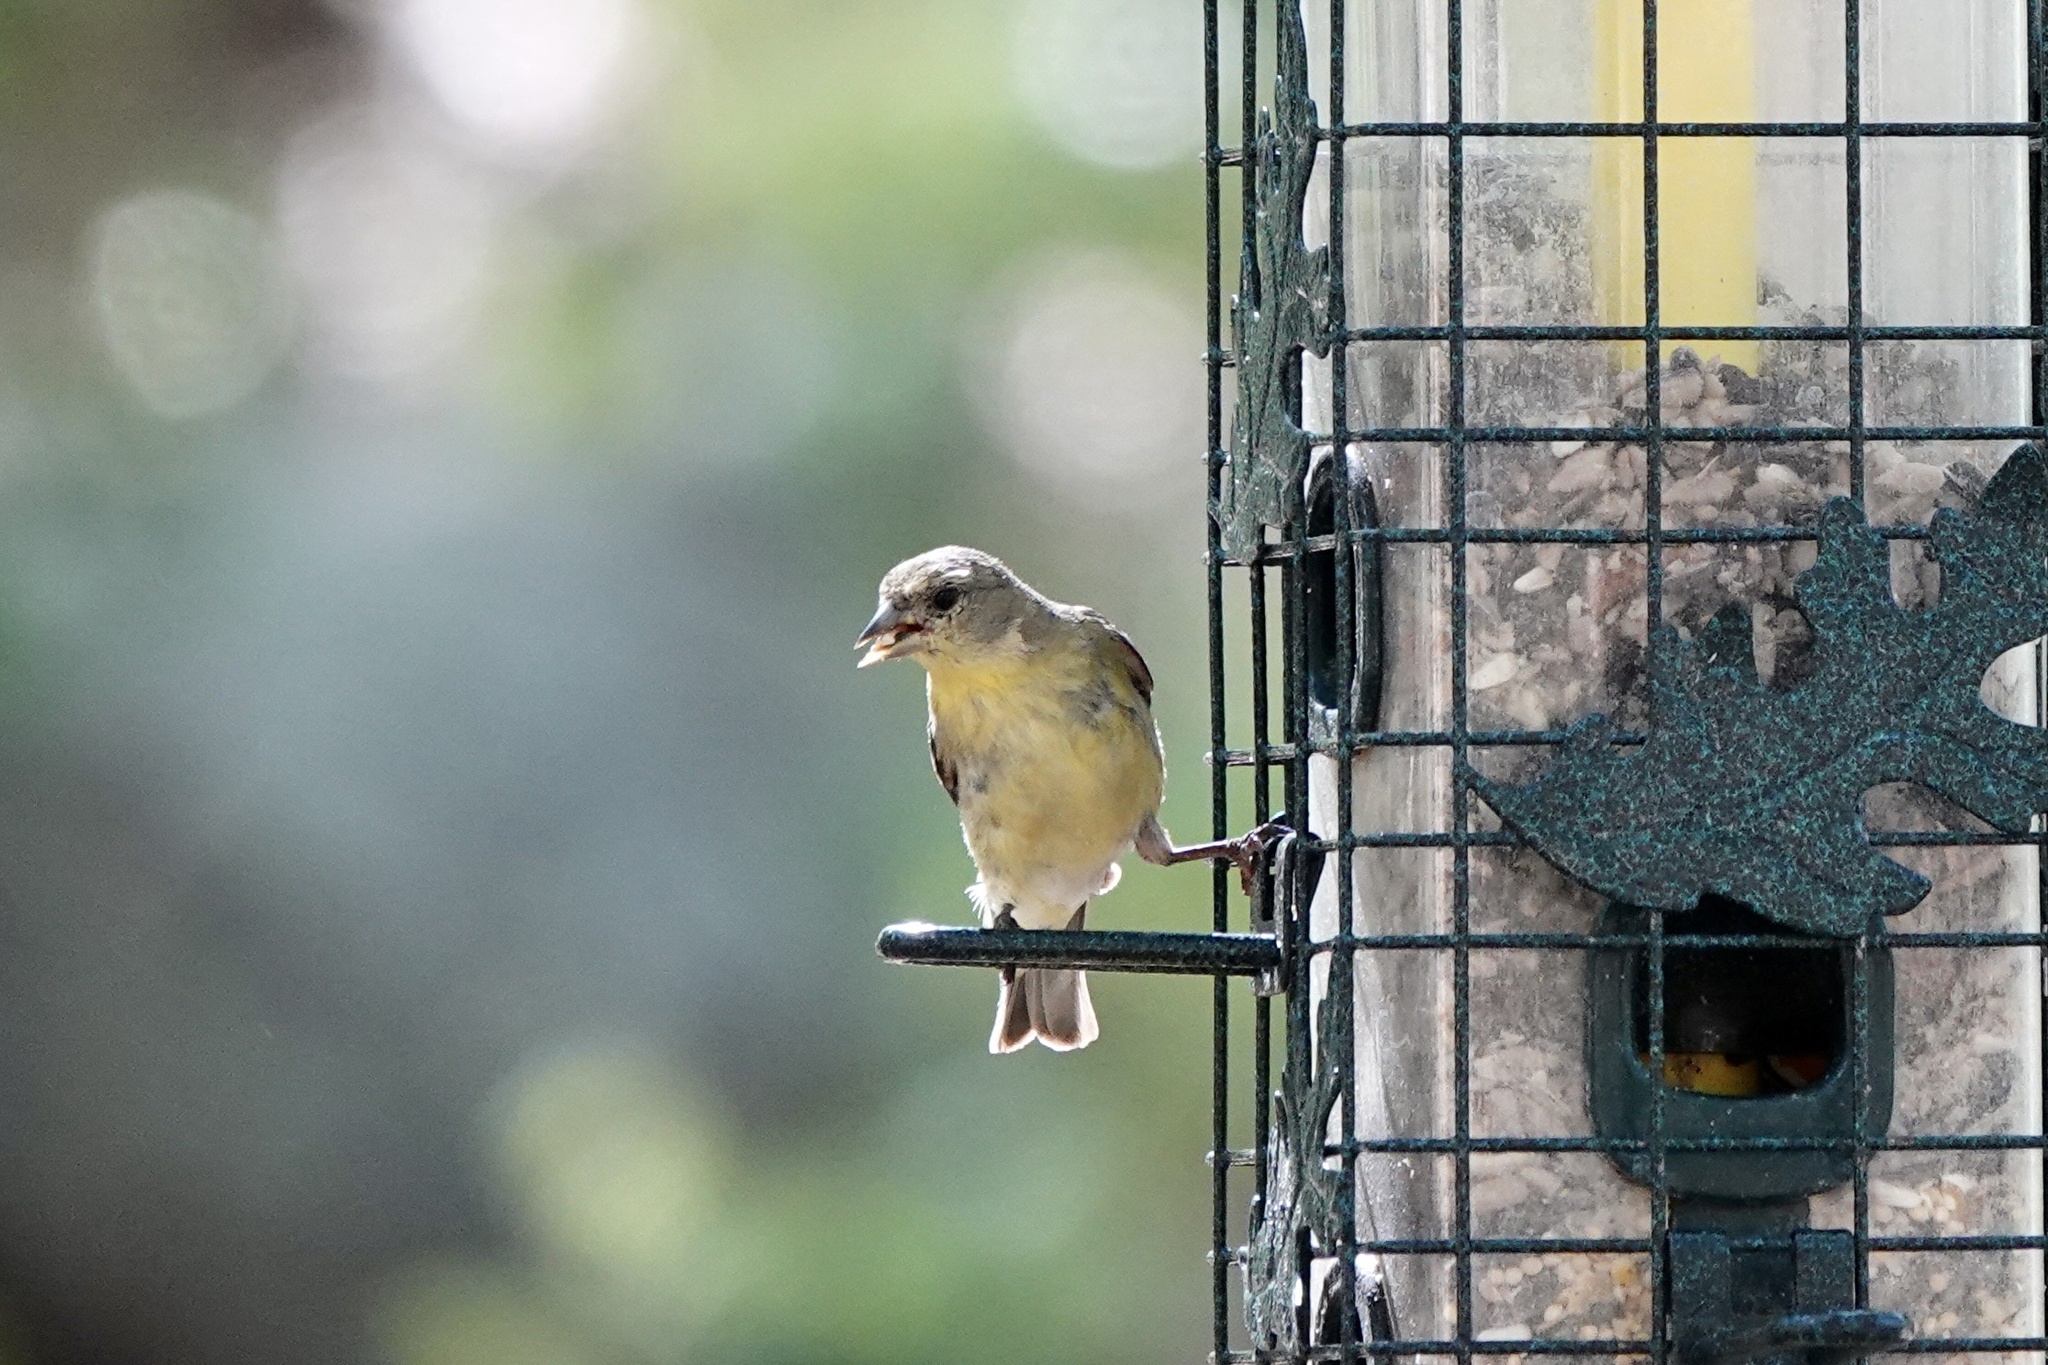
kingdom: Animalia
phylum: Chordata
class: Aves
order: Passeriformes
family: Fringillidae
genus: Spinus
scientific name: Spinus psaltria
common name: Lesser goldfinch
